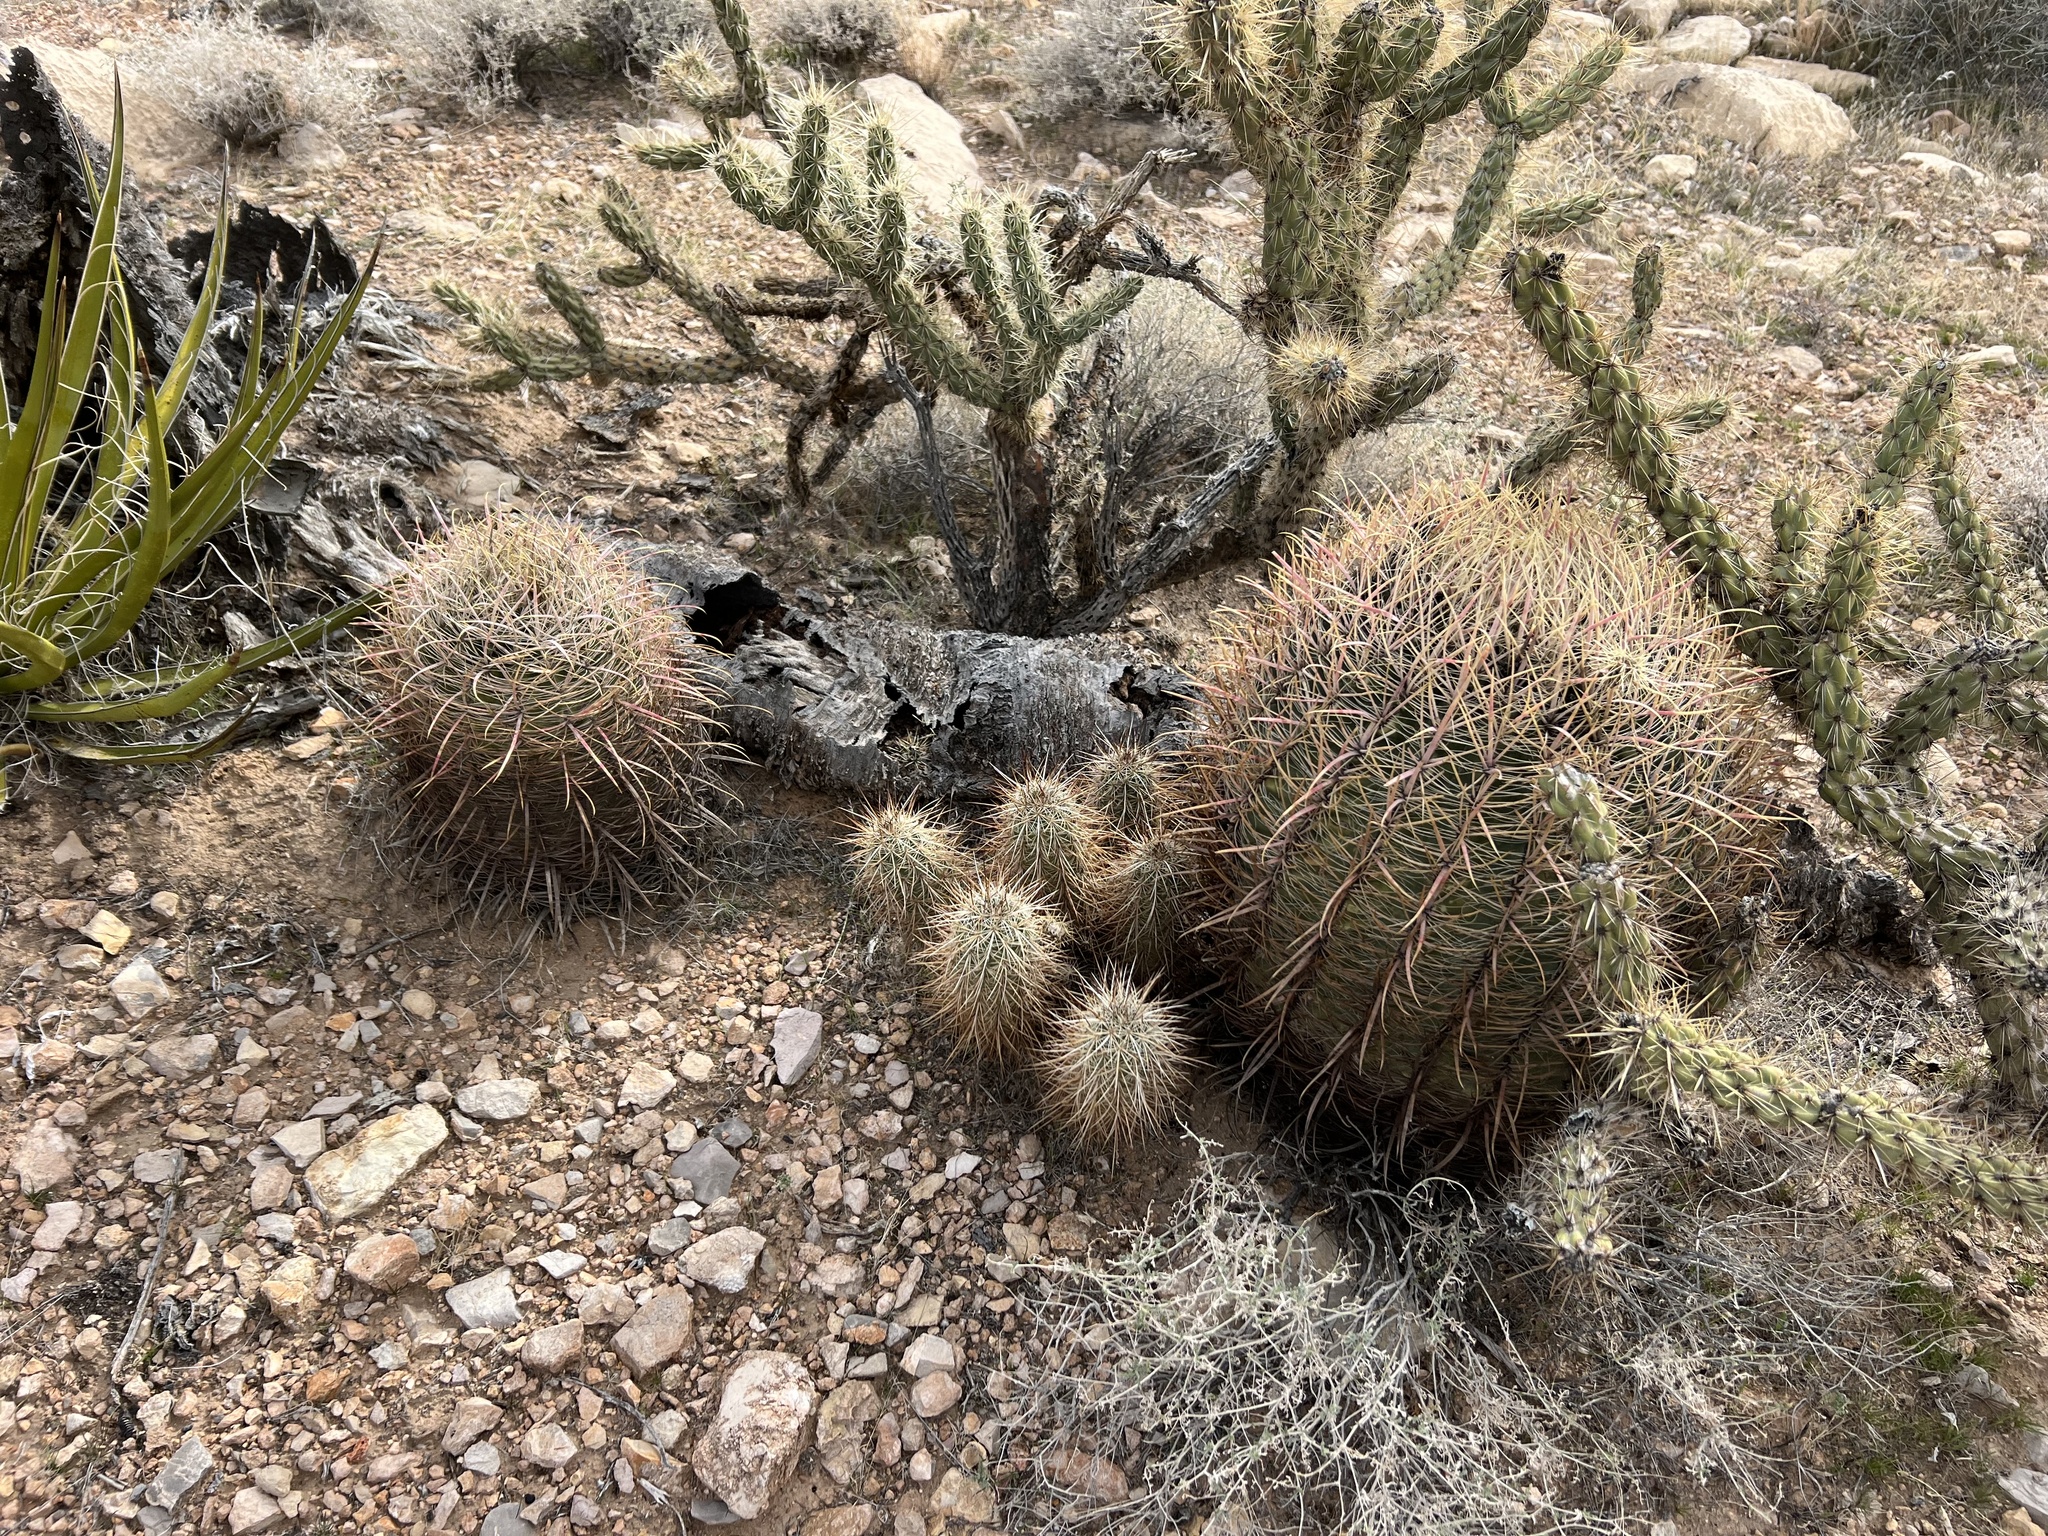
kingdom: Plantae
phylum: Tracheophyta
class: Magnoliopsida
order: Caryophyllales
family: Cactaceae
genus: Ferocactus
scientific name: Ferocactus cylindraceus
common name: California barrel cactus
